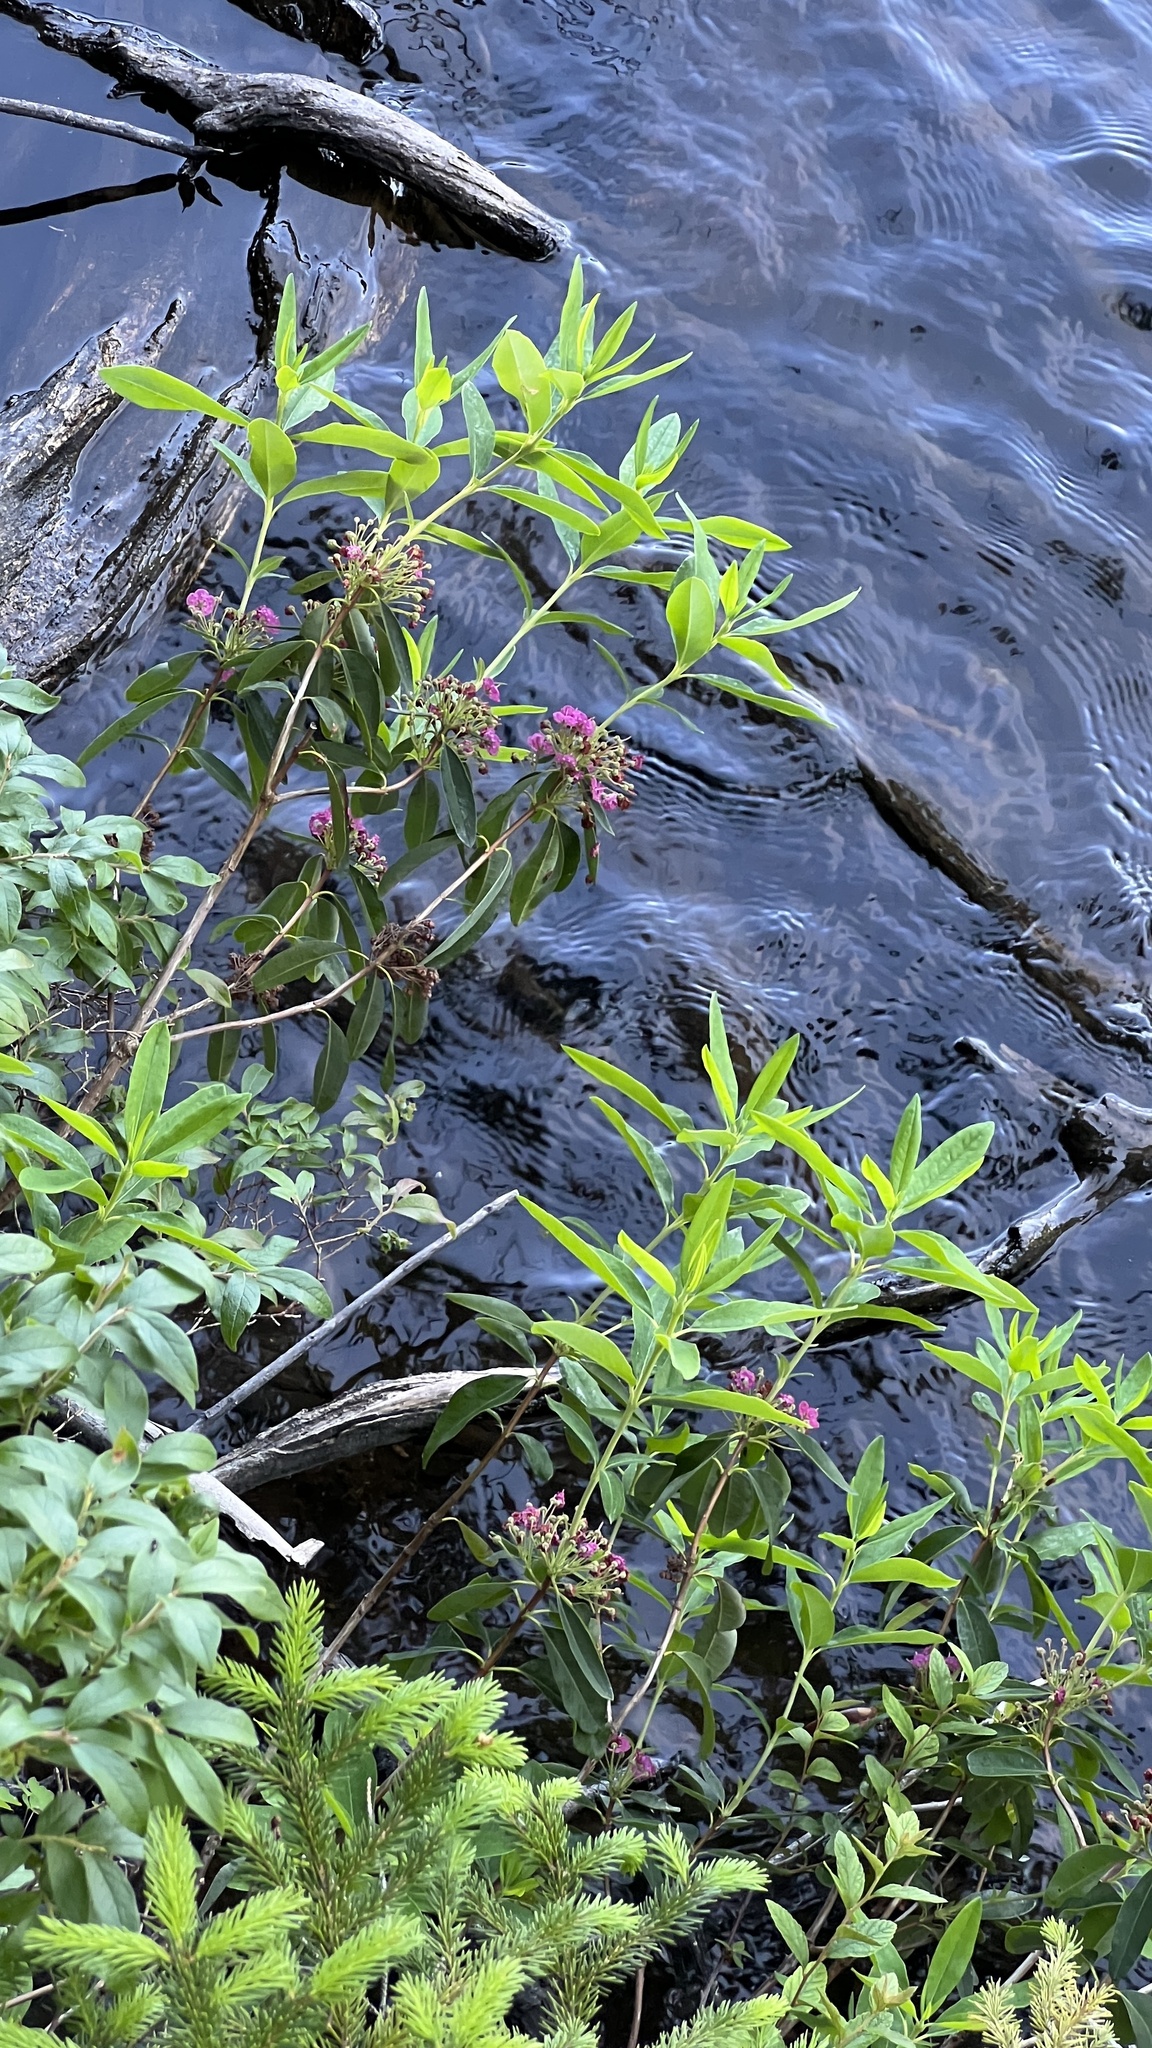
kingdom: Plantae
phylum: Tracheophyta
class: Magnoliopsida
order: Ericales
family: Ericaceae
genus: Kalmia
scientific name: Kalmia angustifolia
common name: Sheep-laurel
